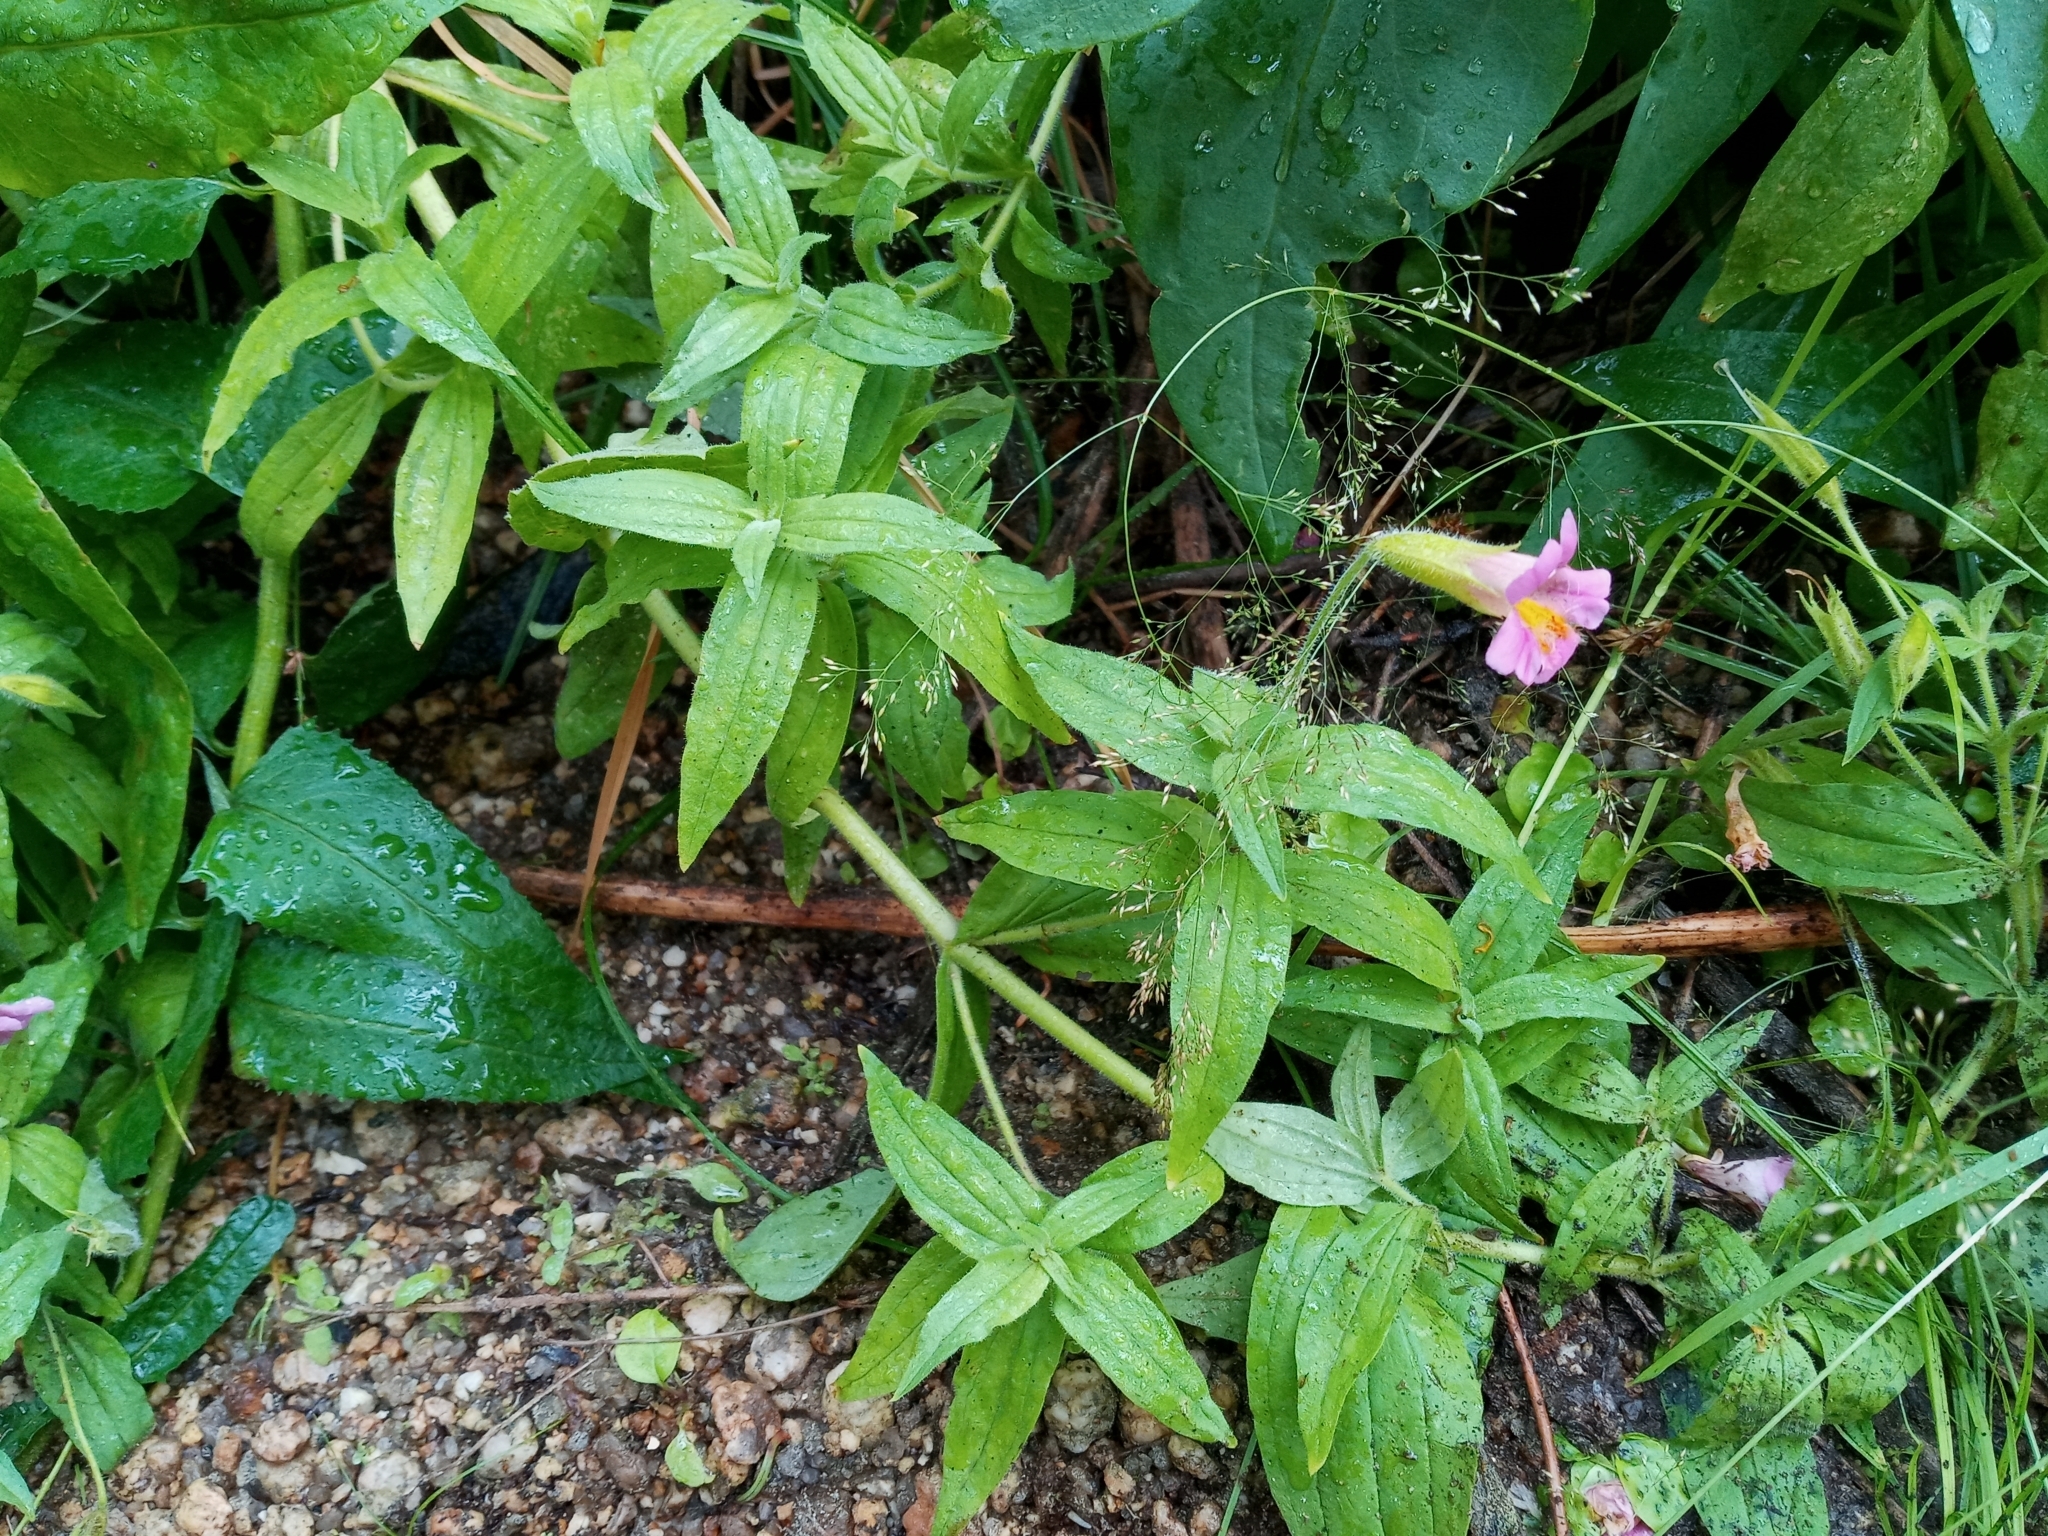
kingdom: Plantae
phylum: Tracheophyta
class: Magnoliopsida
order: Lamiales
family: Phrymaceae
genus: Erythranthe
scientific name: Erythranthe erubescens
